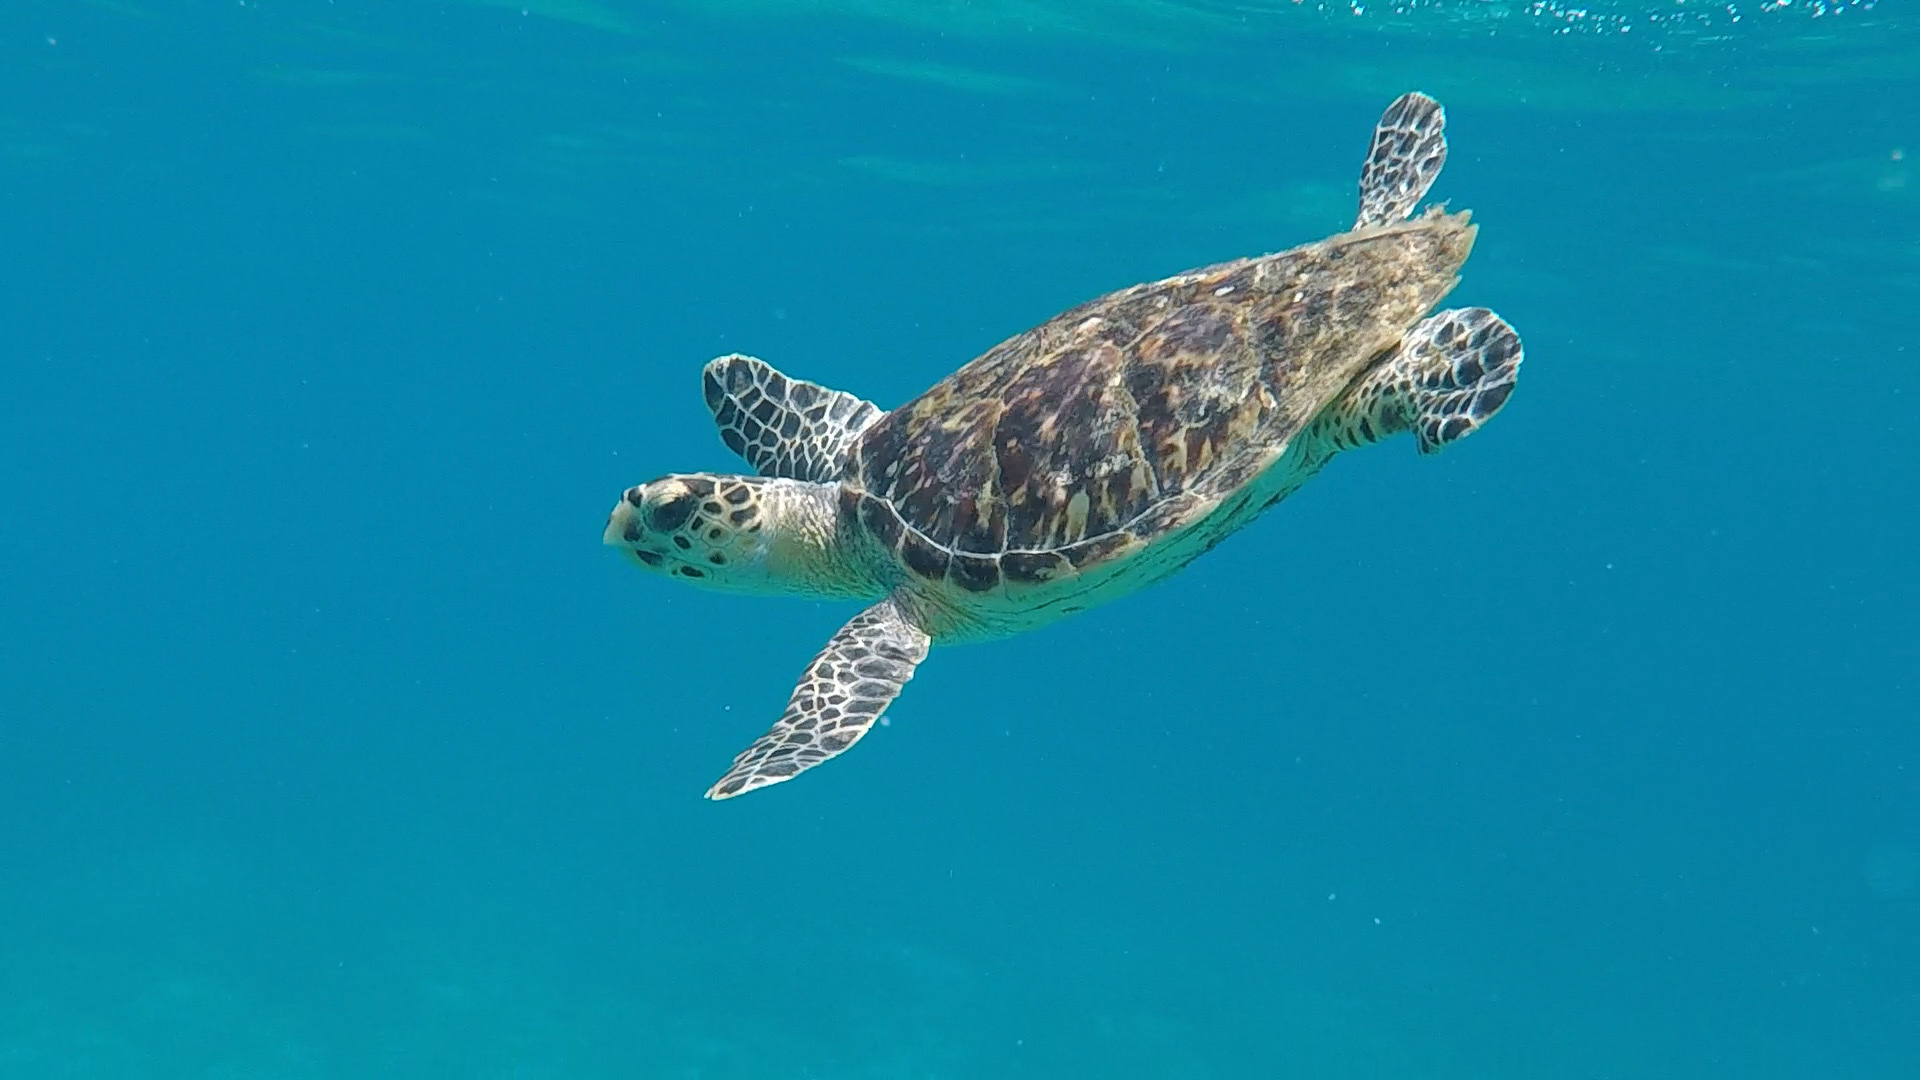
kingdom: Animalia
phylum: Chordata
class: Testudines
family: Cheloniidae
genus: Eretmochelys
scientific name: Eretmochelys imbricata
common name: Hawksbill turtle
